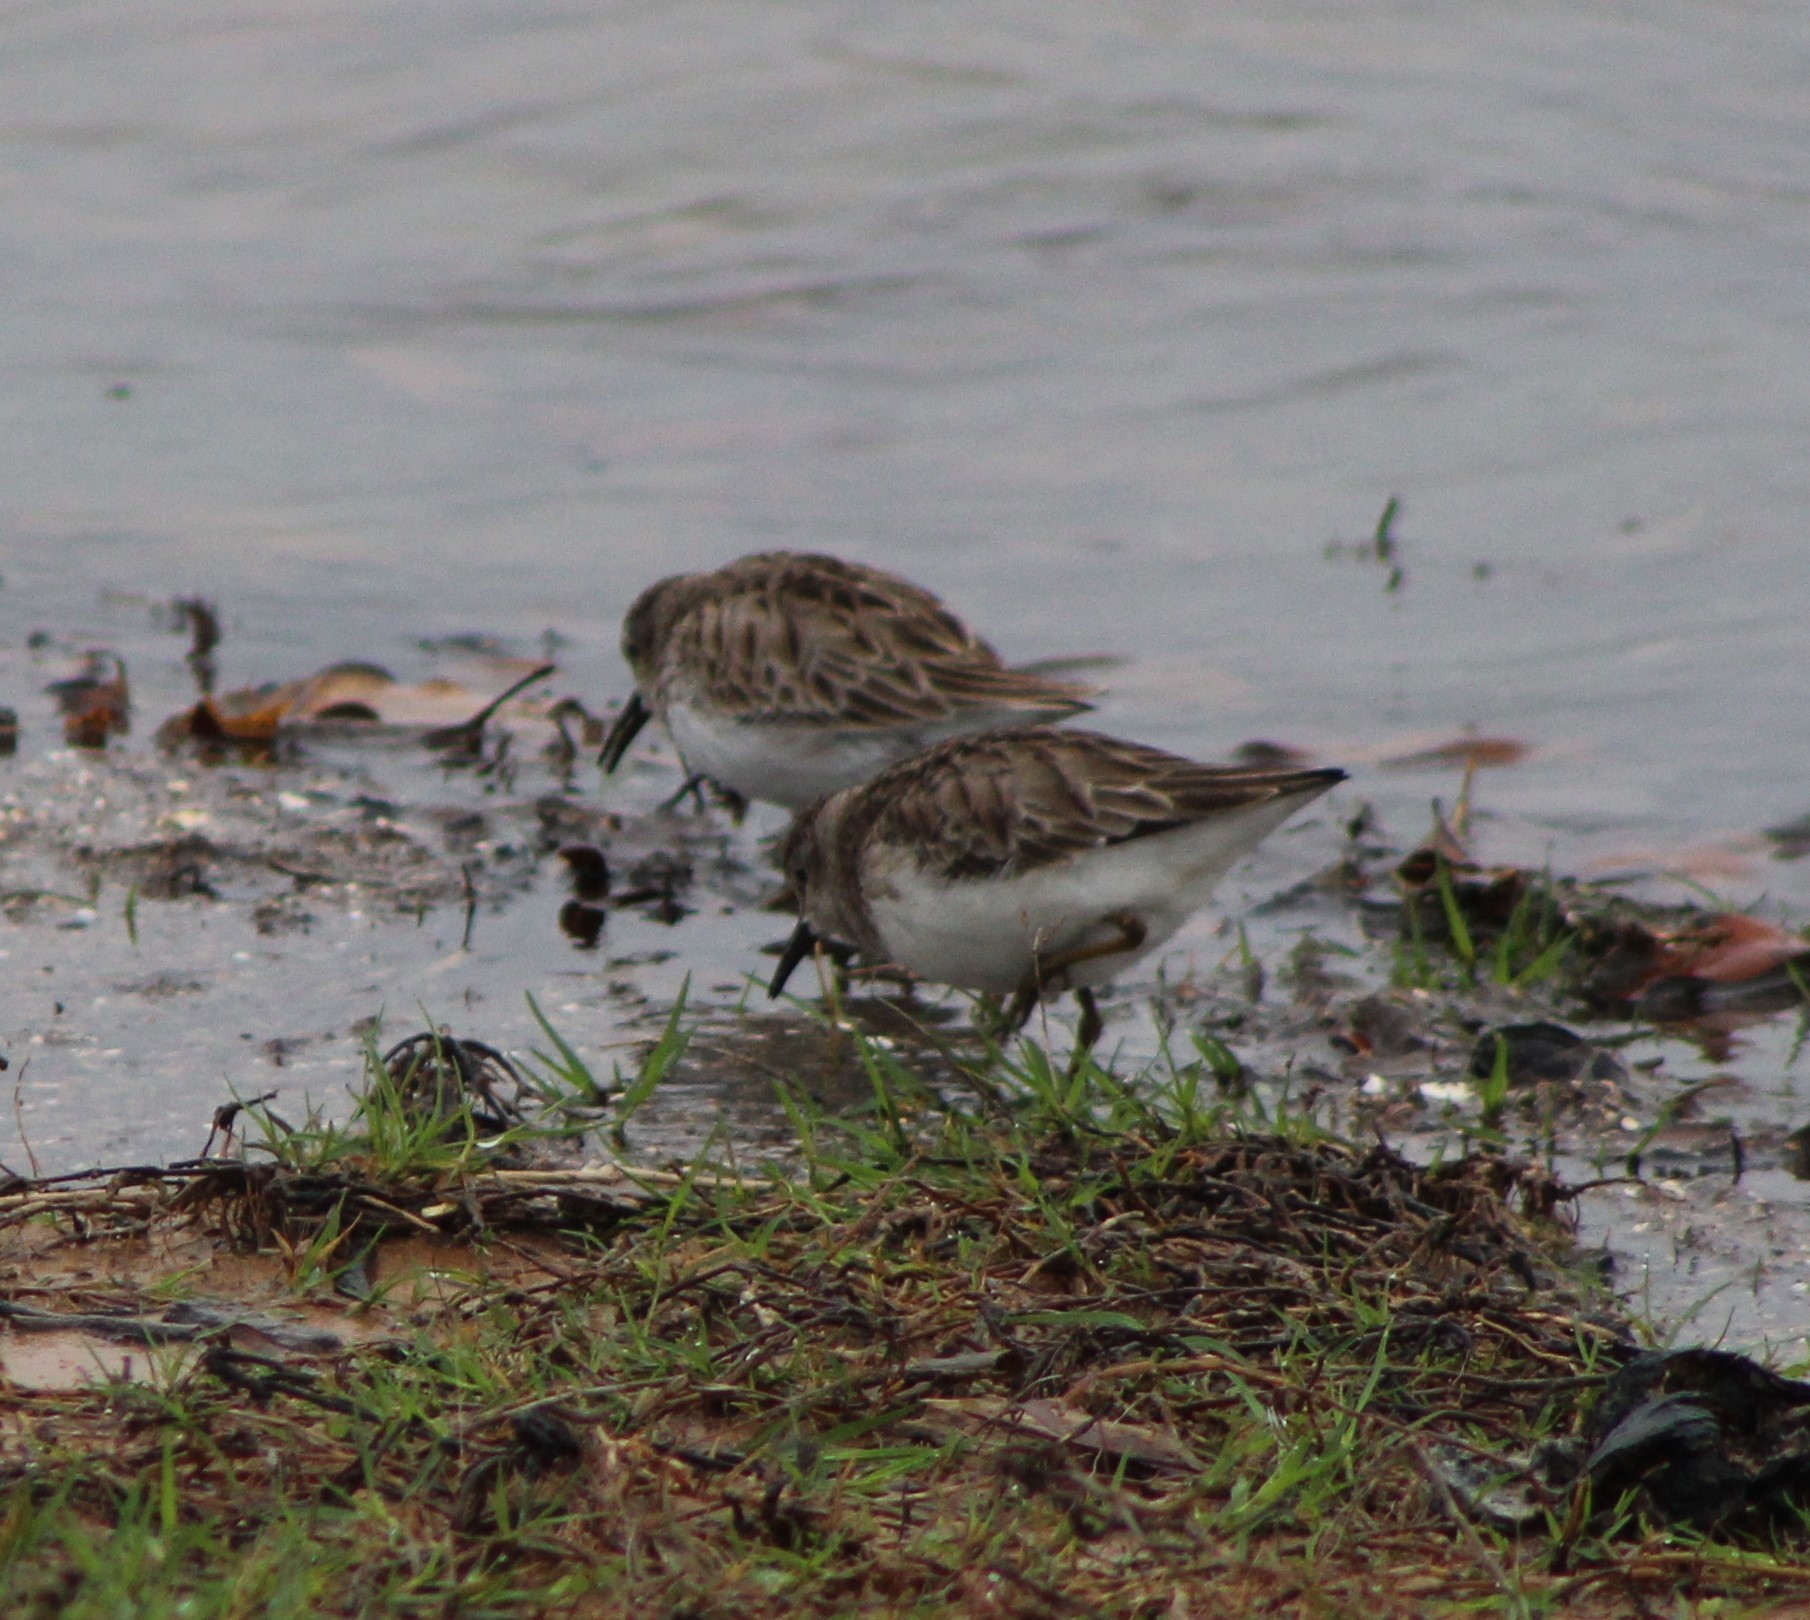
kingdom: Animalia
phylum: Chordata
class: Aves
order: Charadriiformes
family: Scolopacidae
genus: Calidris
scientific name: Calidris minutilla
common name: Least sandpiper
